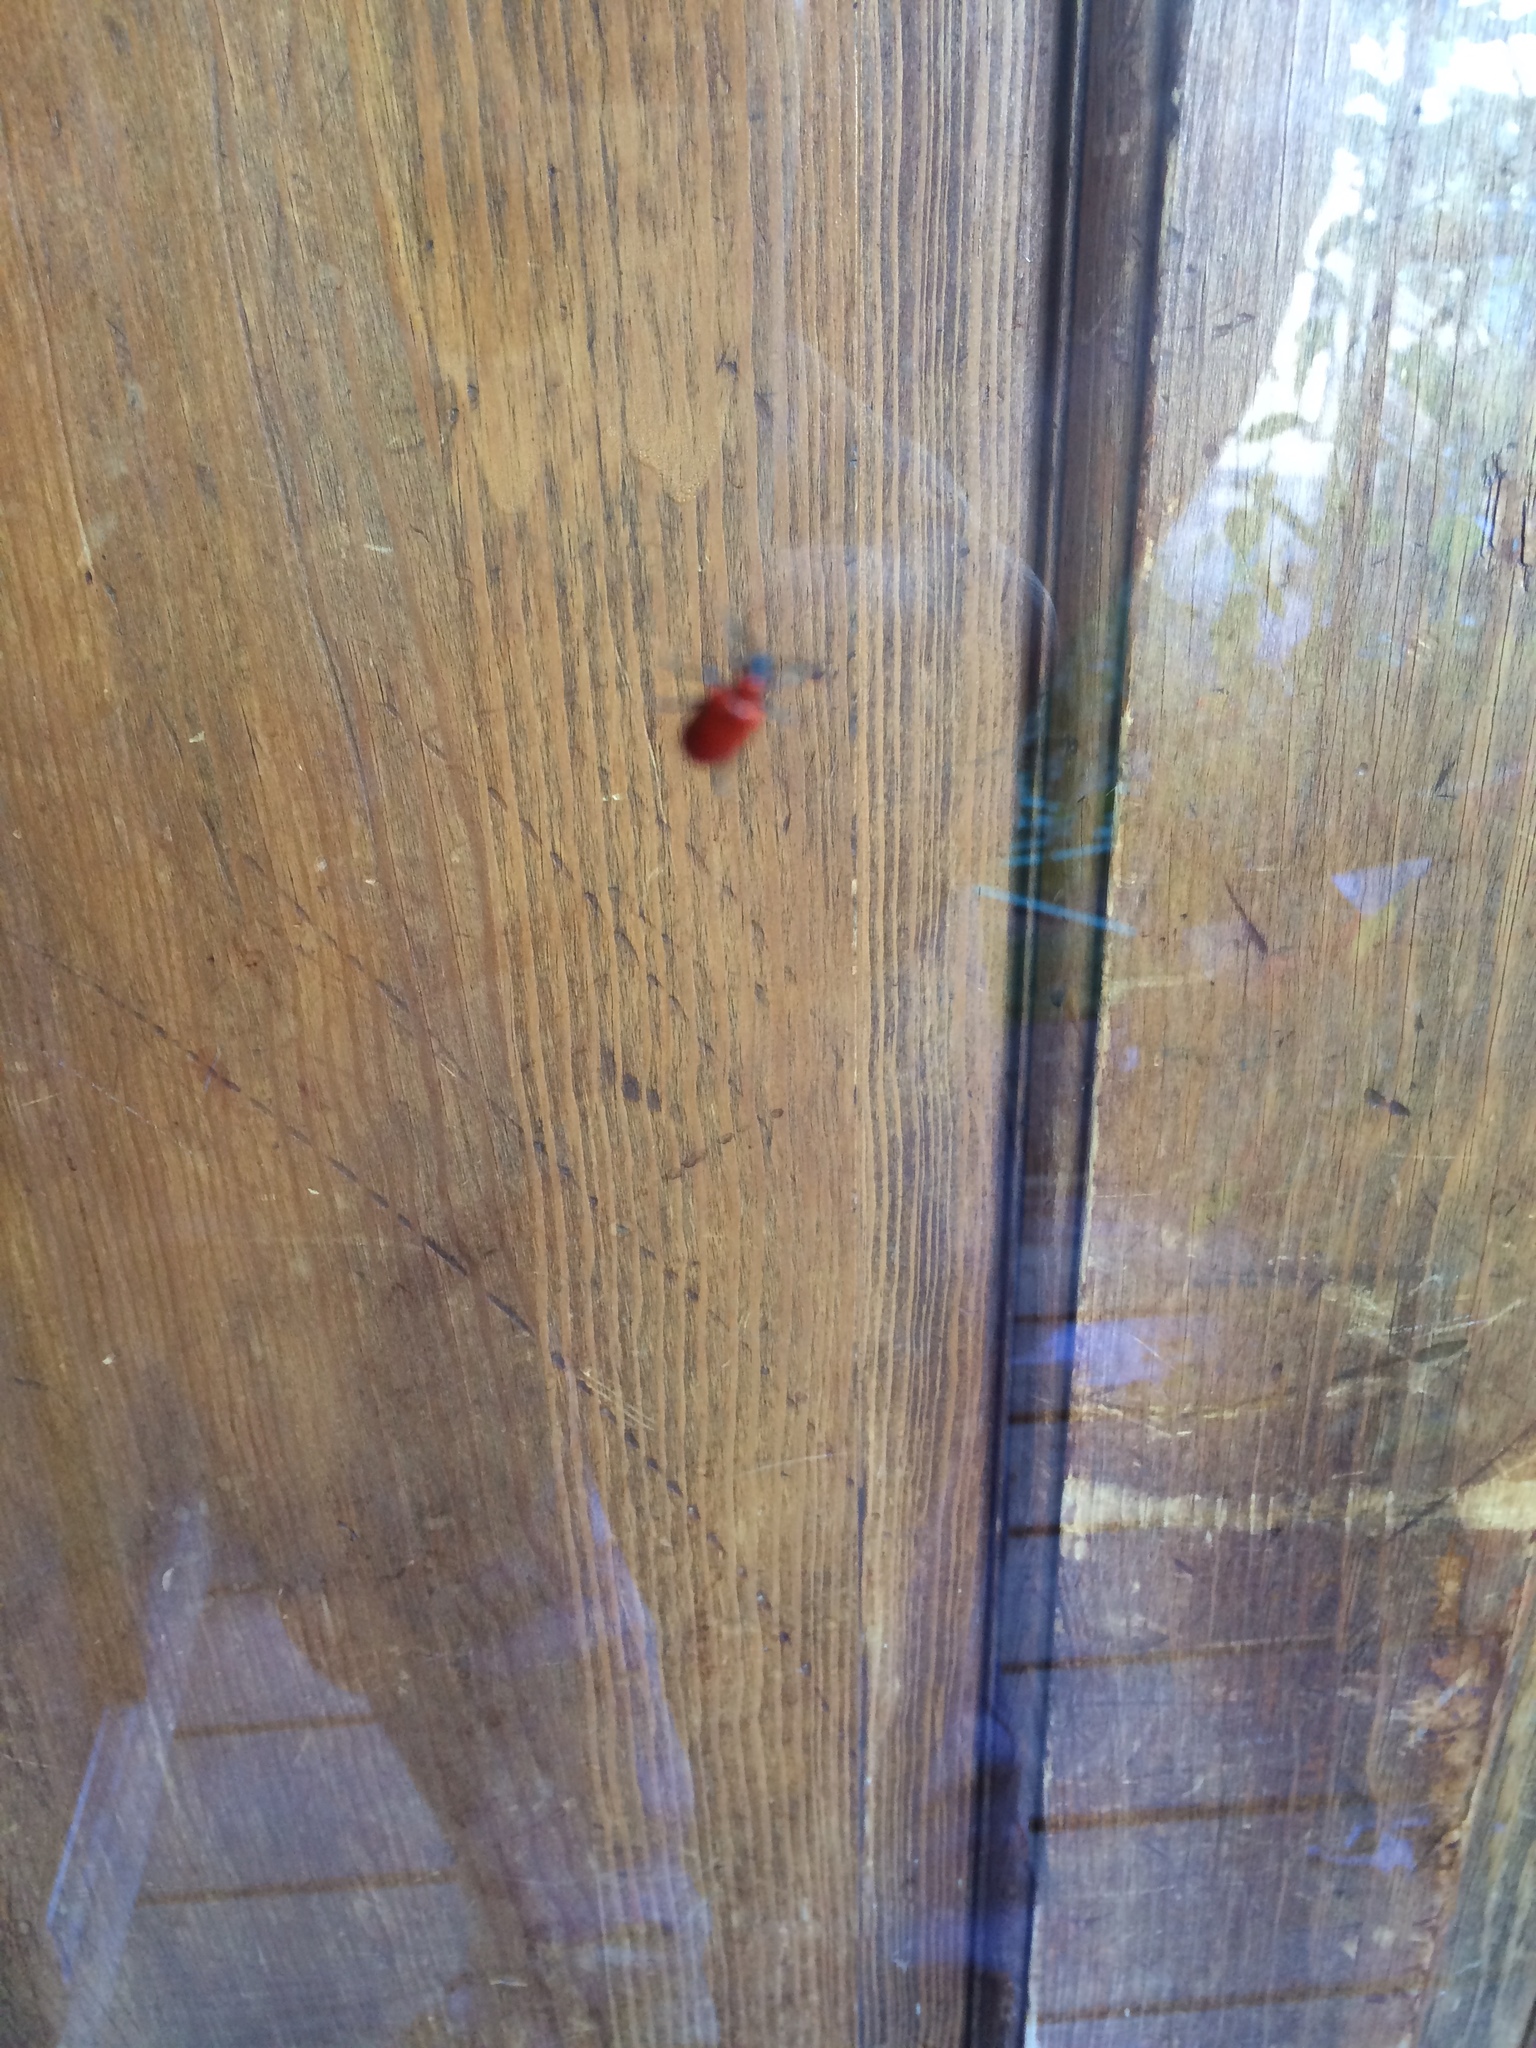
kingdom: Animalia
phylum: Arthropoda
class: Insecta
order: Coleoptera
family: Chrysomelidae
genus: Lilioceris
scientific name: Lilioceris lilii
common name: Lily beetle
